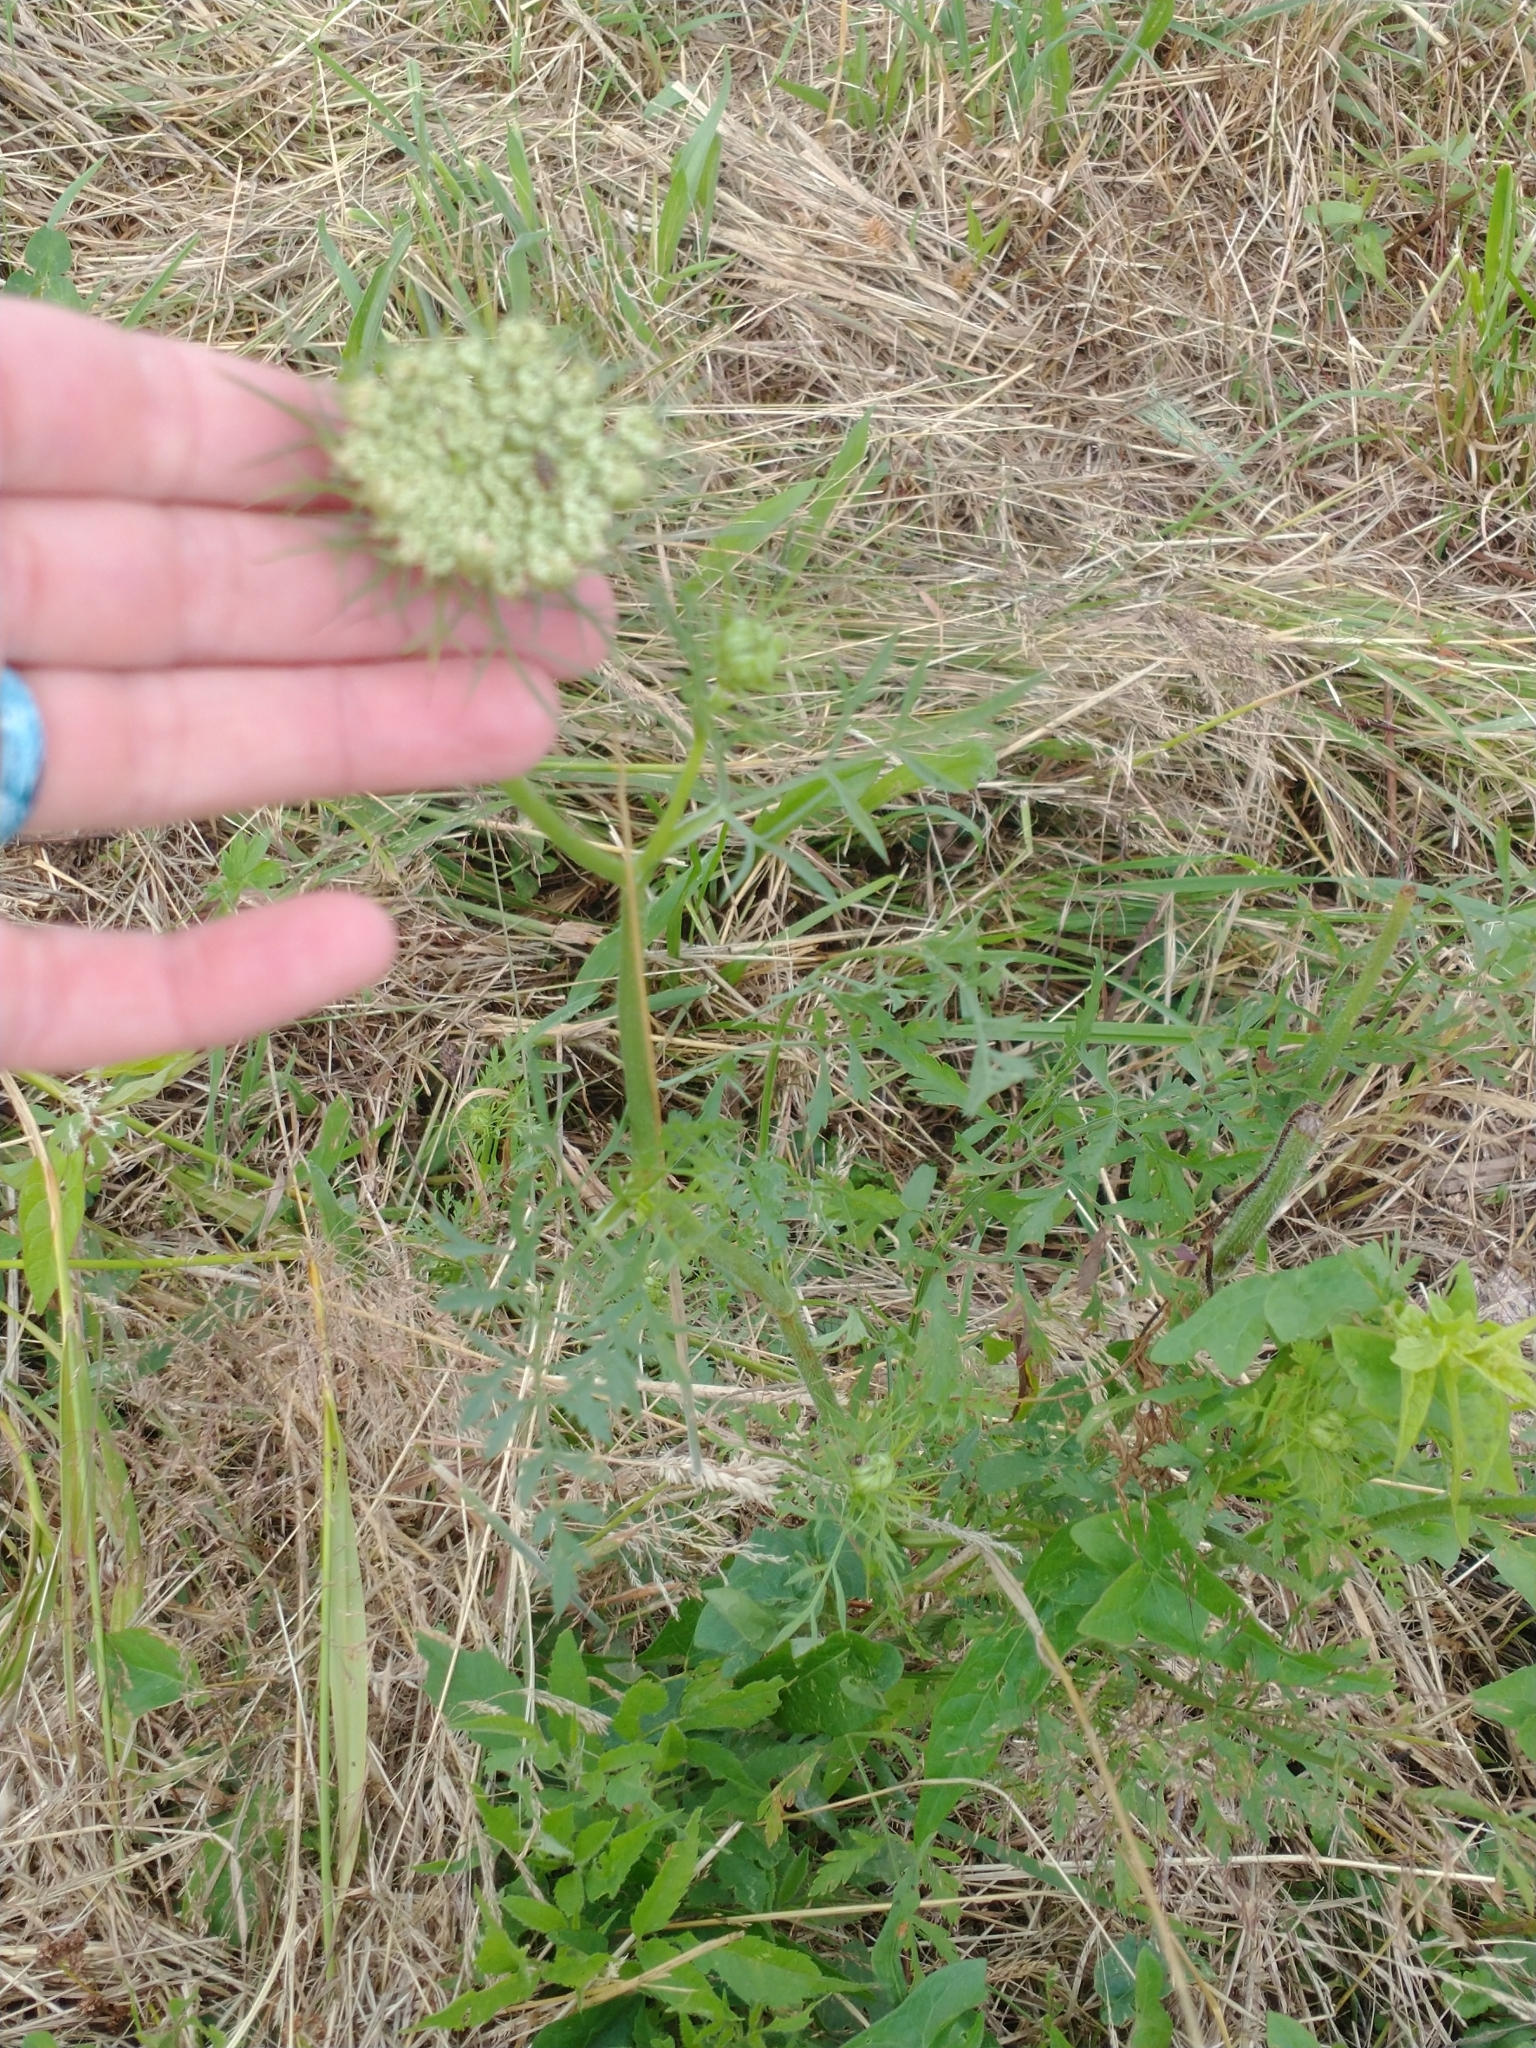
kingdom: Plantae
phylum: Tracheophyta
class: Magnoliopsida
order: Apiales
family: Apiaceae
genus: Daucus
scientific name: Daucus carota
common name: Wild carrot
